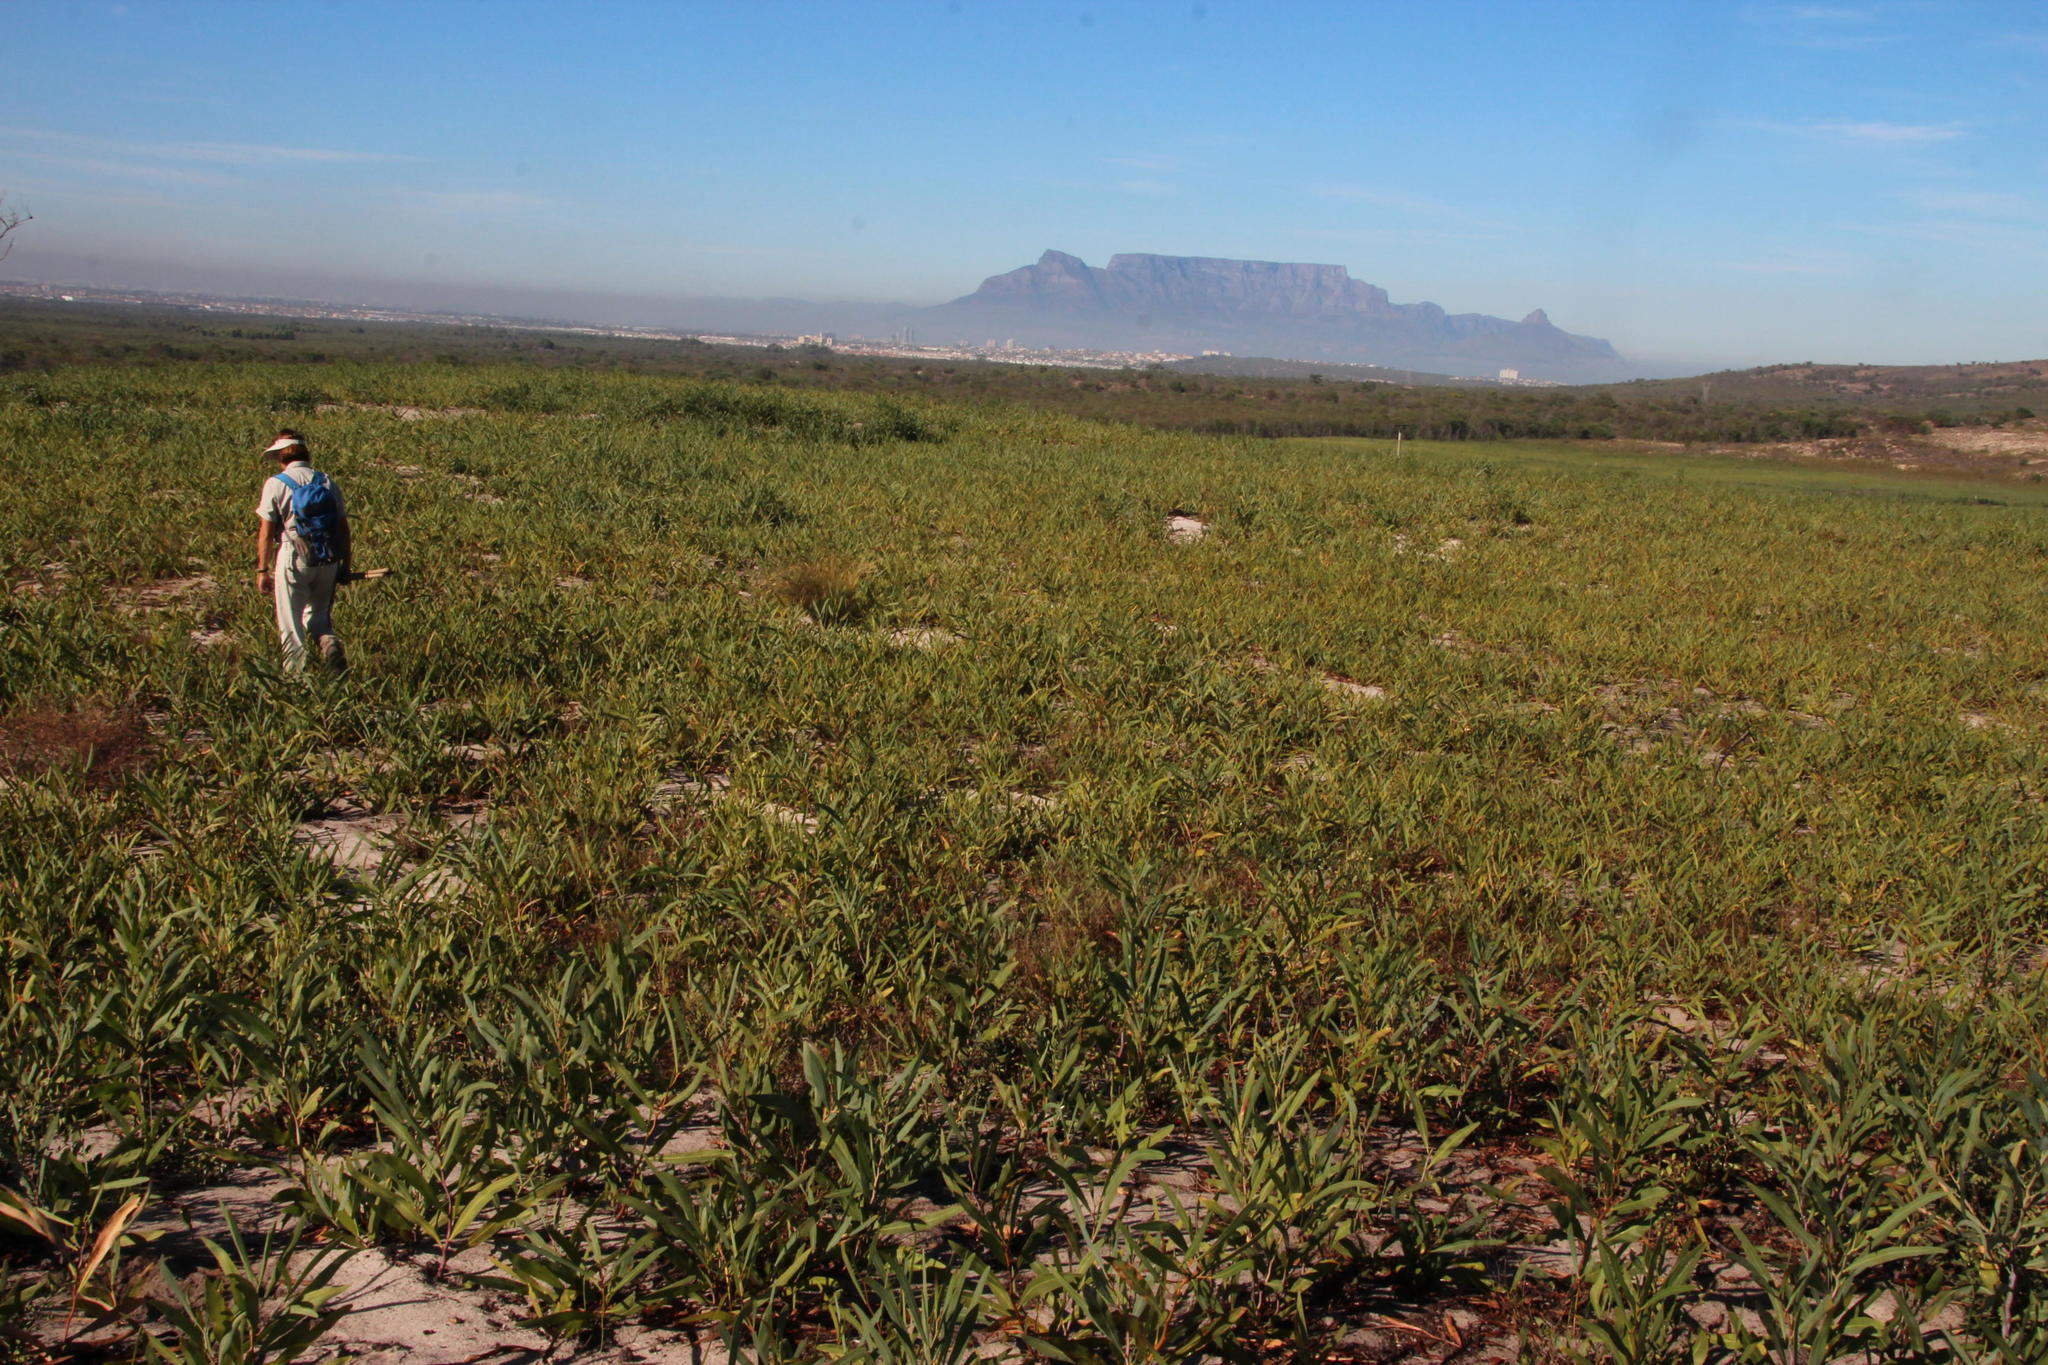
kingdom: Plantae
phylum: Tracheophyta
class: Magnoliopsida
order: Fabales
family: Fabaceae
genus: Acacia
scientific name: Acacia saligna
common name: Orange wattle
